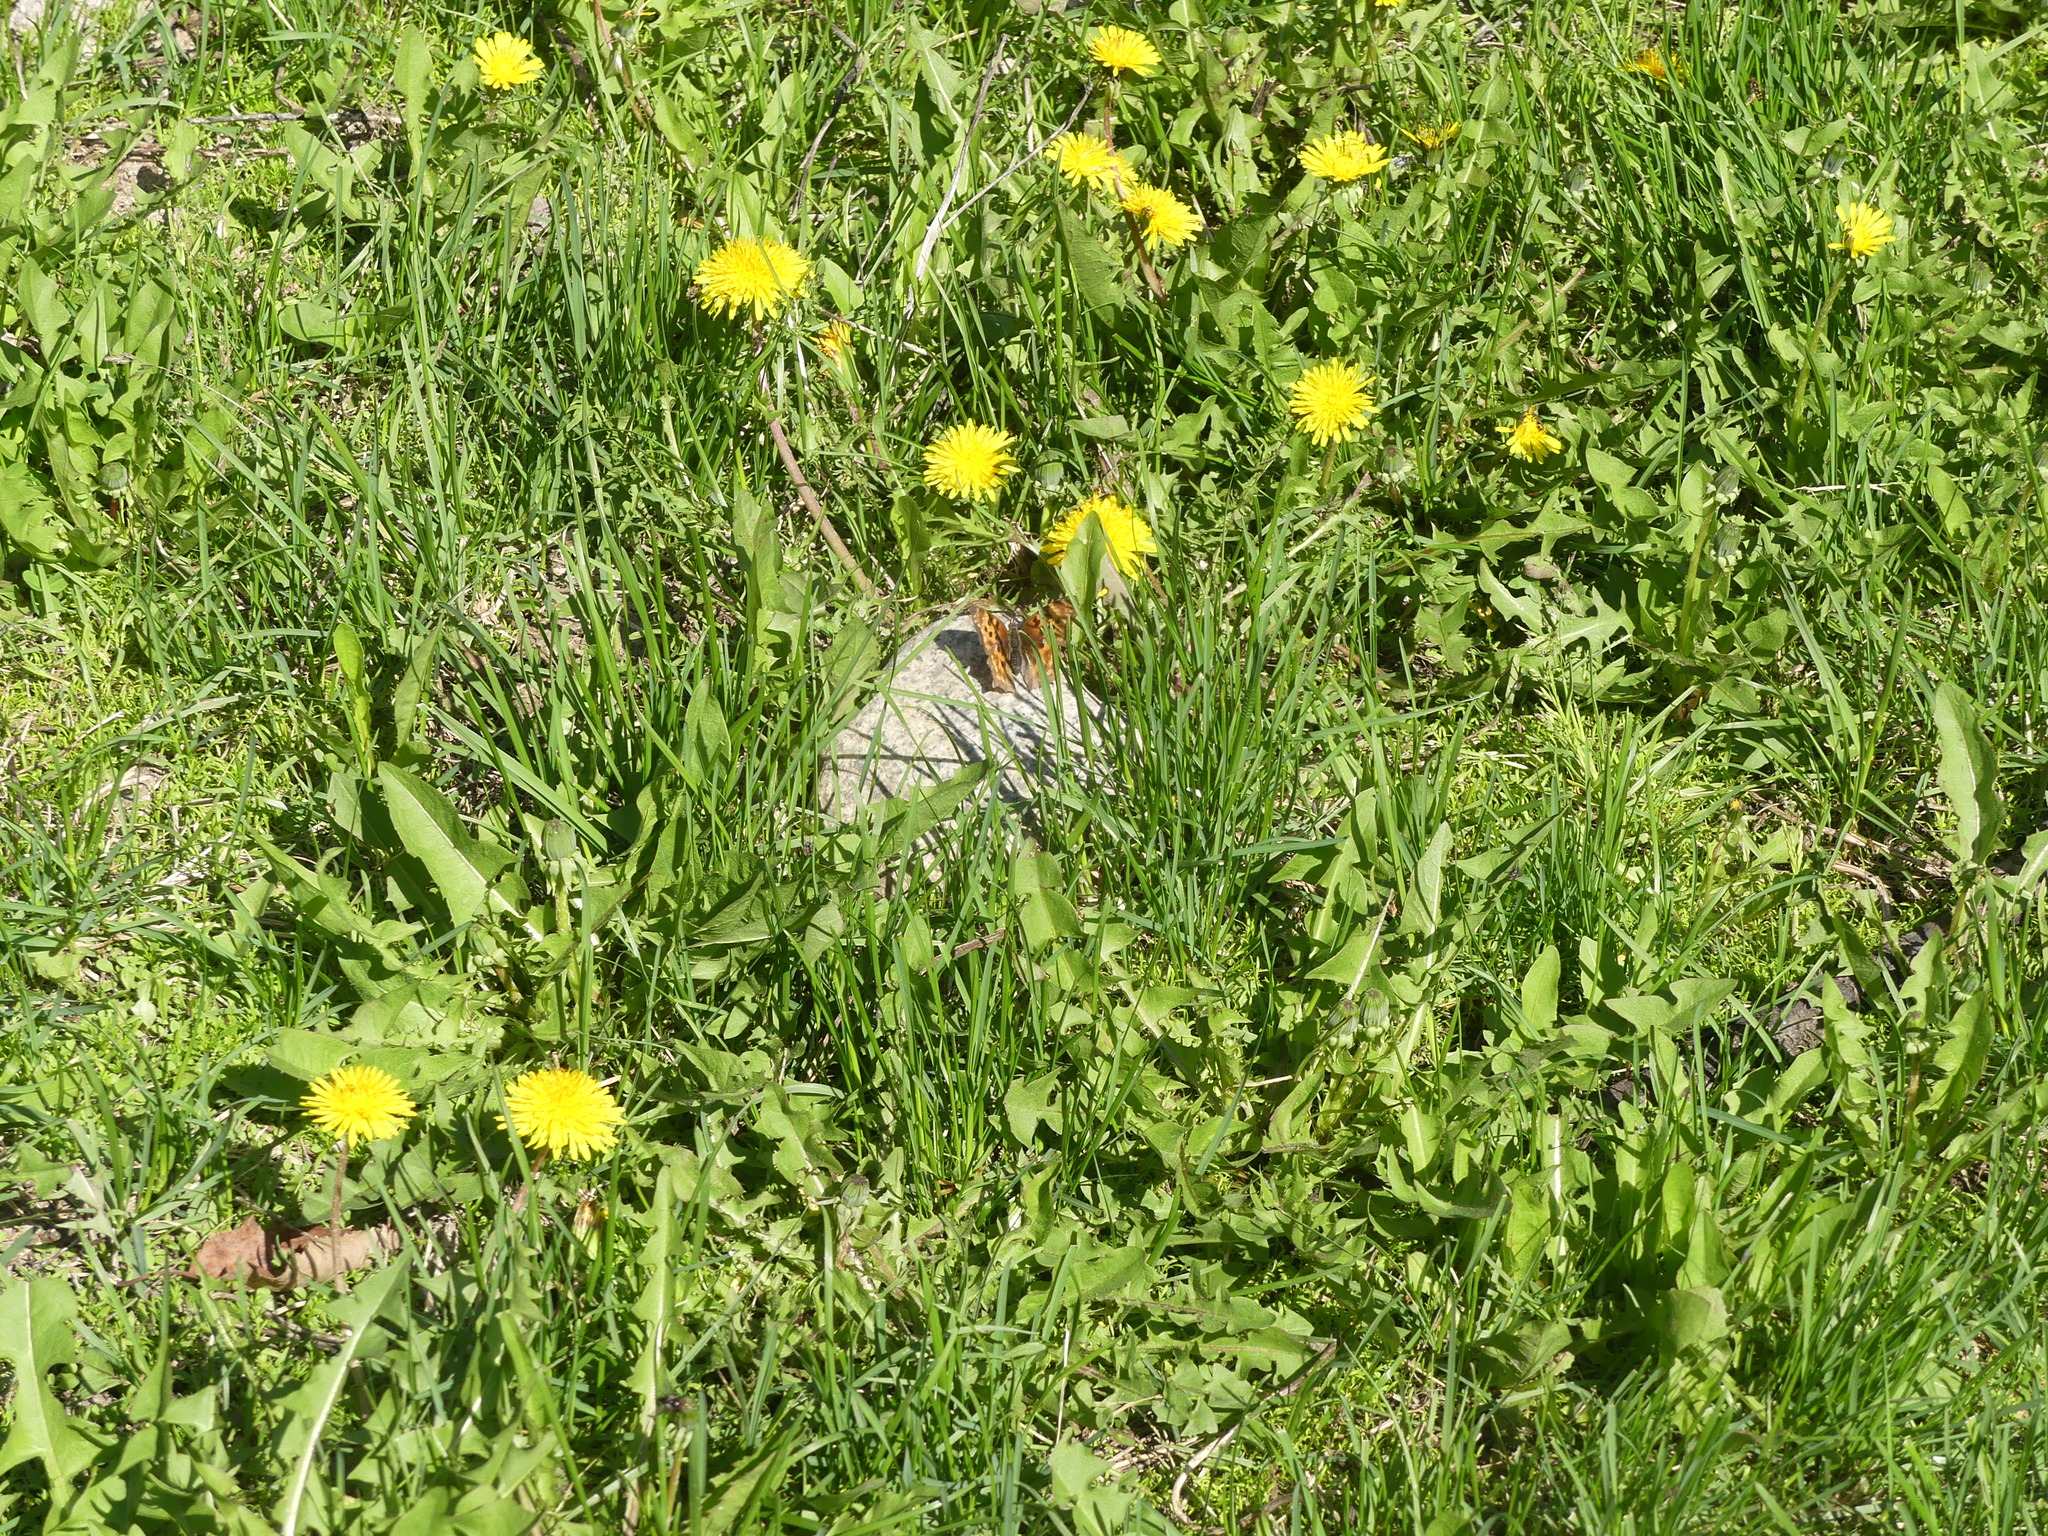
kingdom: Animalia
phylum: Arthropoda
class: Insecta
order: Lepidoptera
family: Nymphalidae
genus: Polygonia
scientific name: Polygonia satyrus
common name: Satyr angle wing
